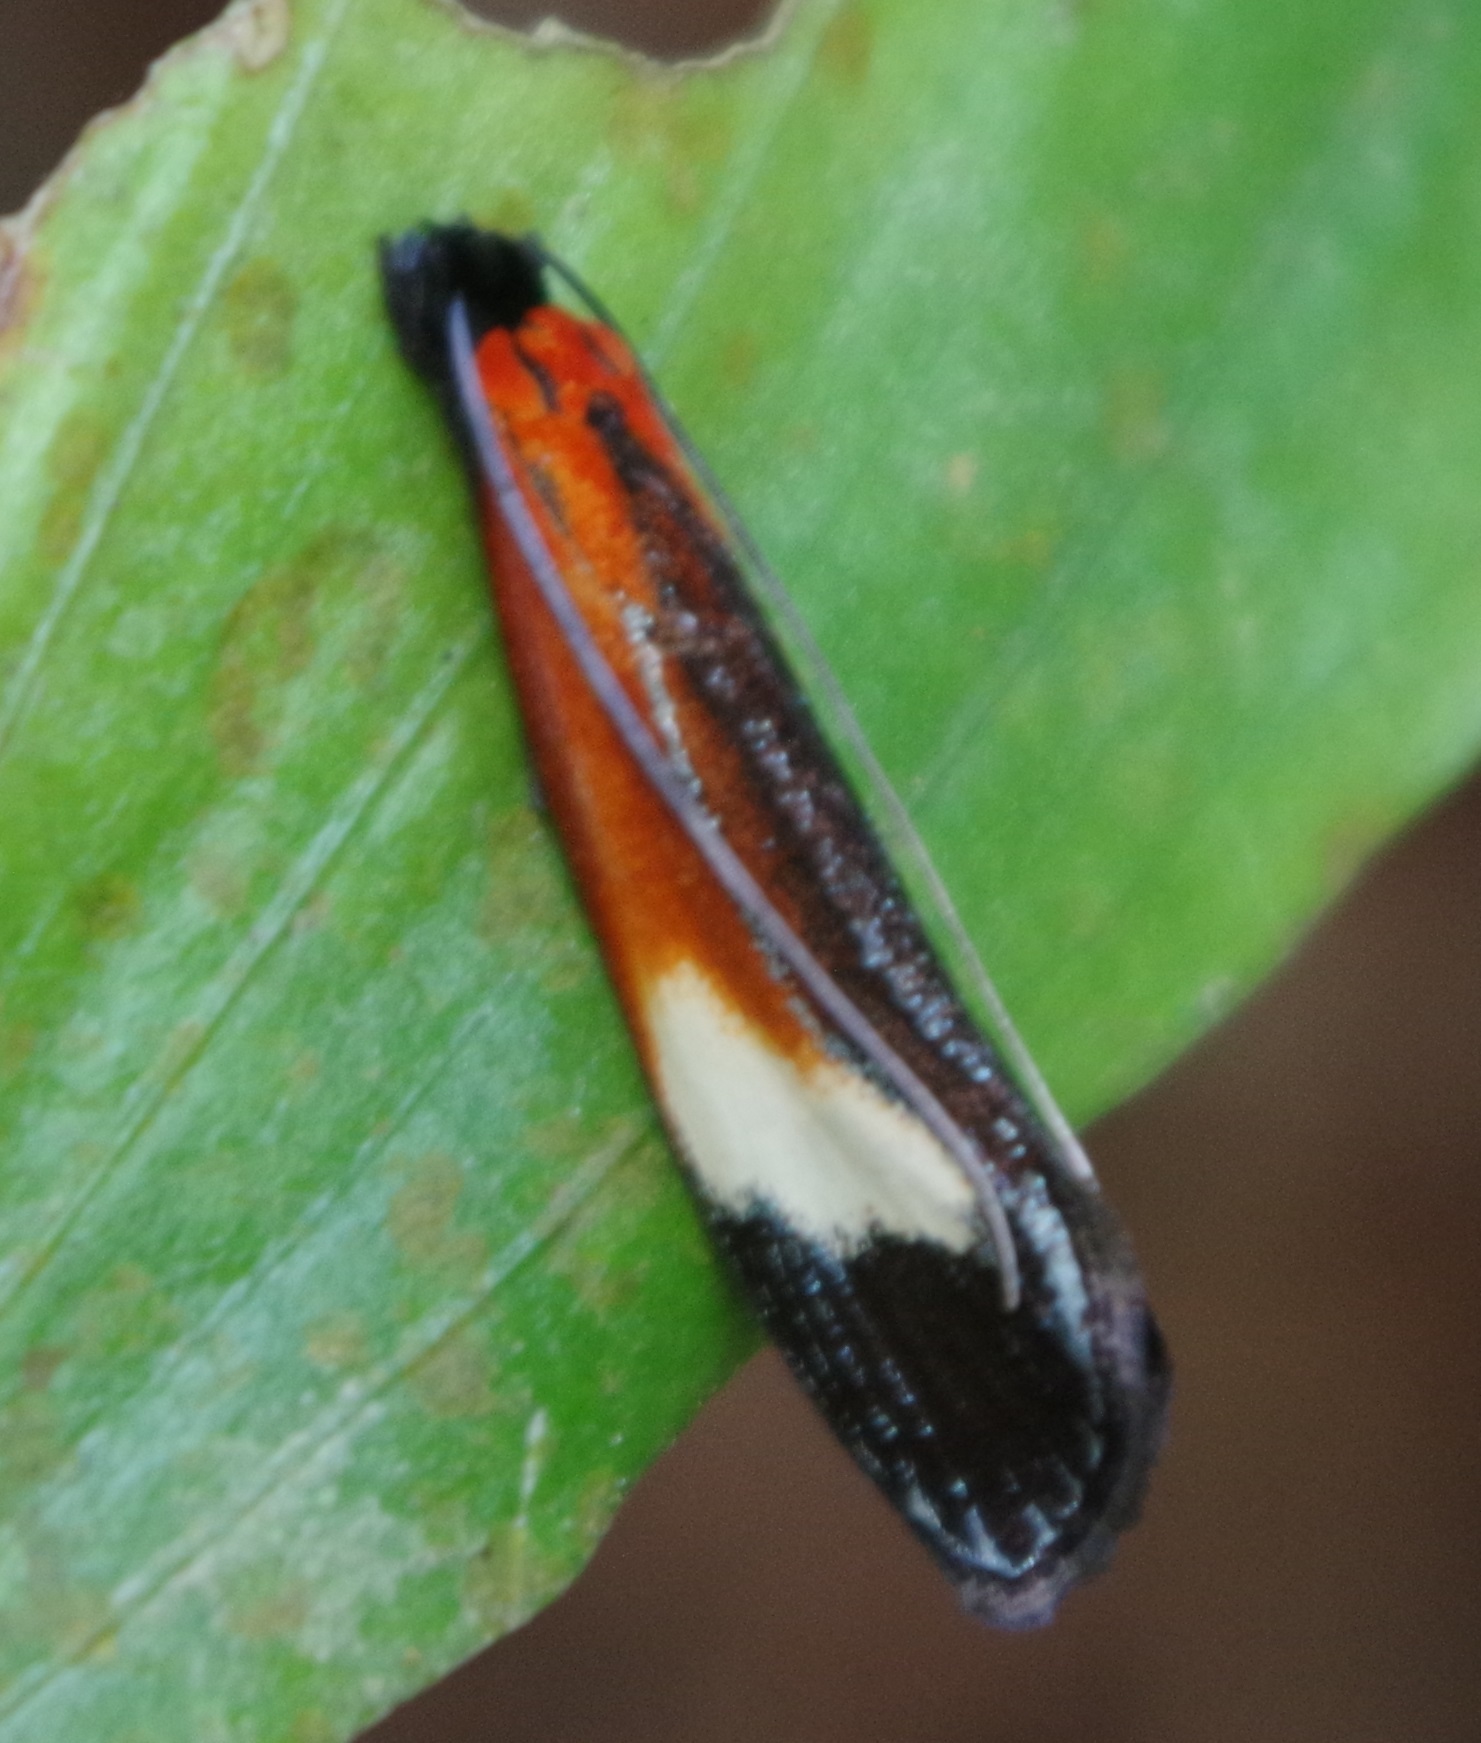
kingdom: Animalia
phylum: Arthropoda
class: Insecta
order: Lepidoptera
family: Tineidae
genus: Coryptilum
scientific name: Coryptilum rutilella
